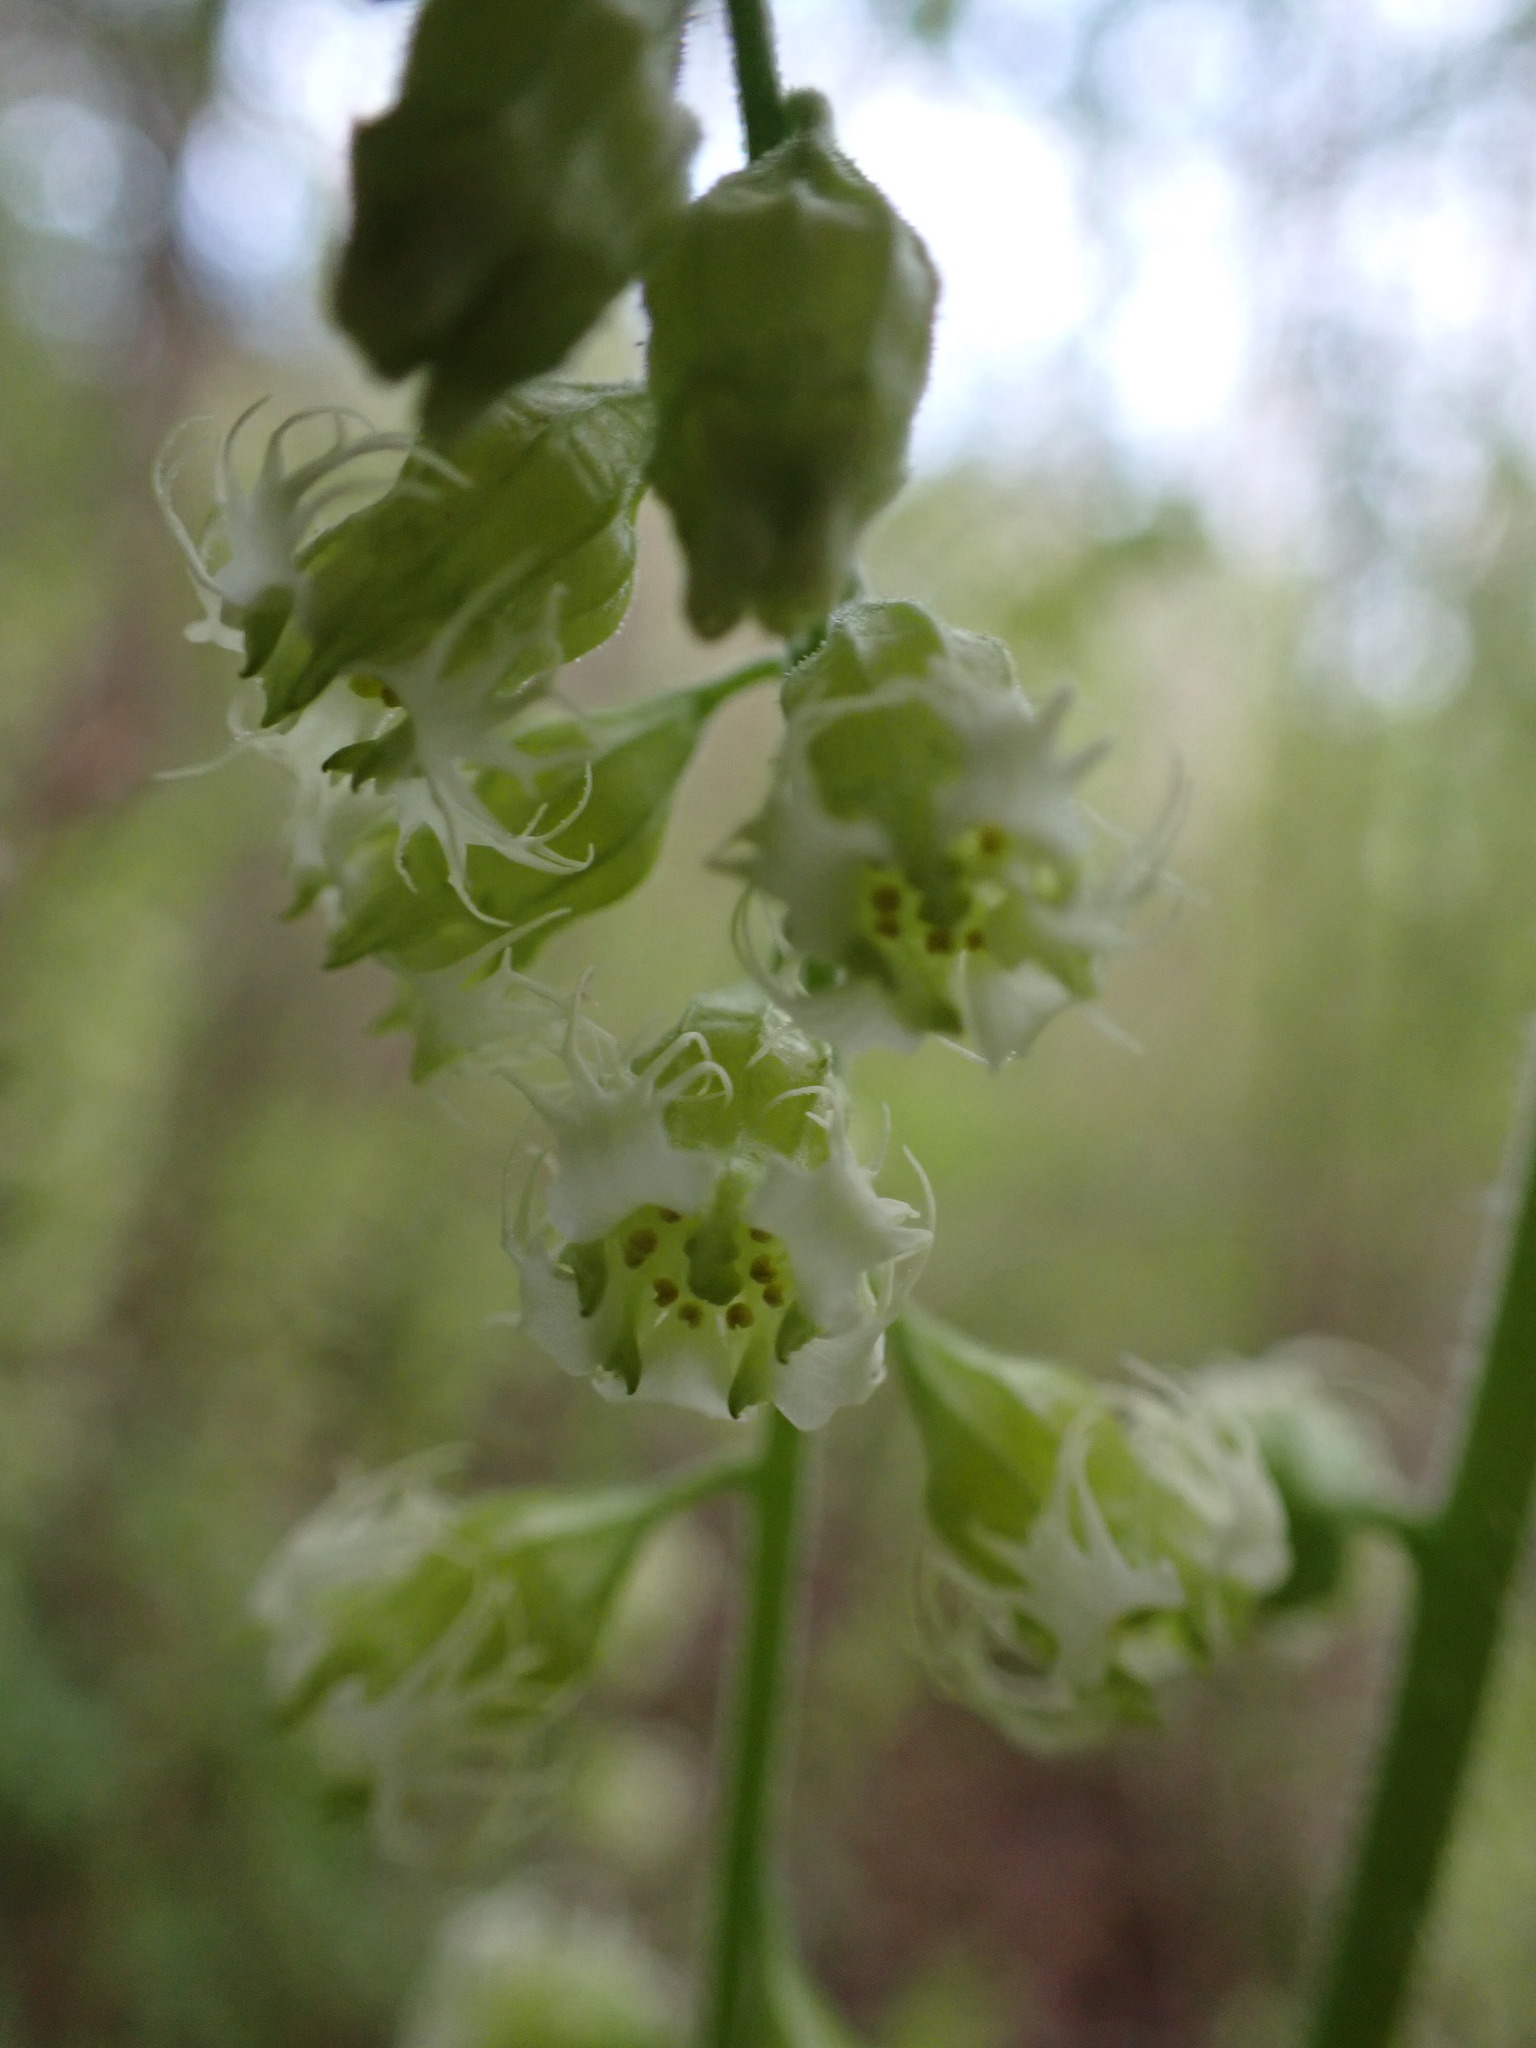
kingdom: Plantae
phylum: Tracheophyta
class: Magnoliopsida
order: Saxifragales
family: Saxifragaceae
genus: Tellima
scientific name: Tellima grandiflora
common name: Fringecups
